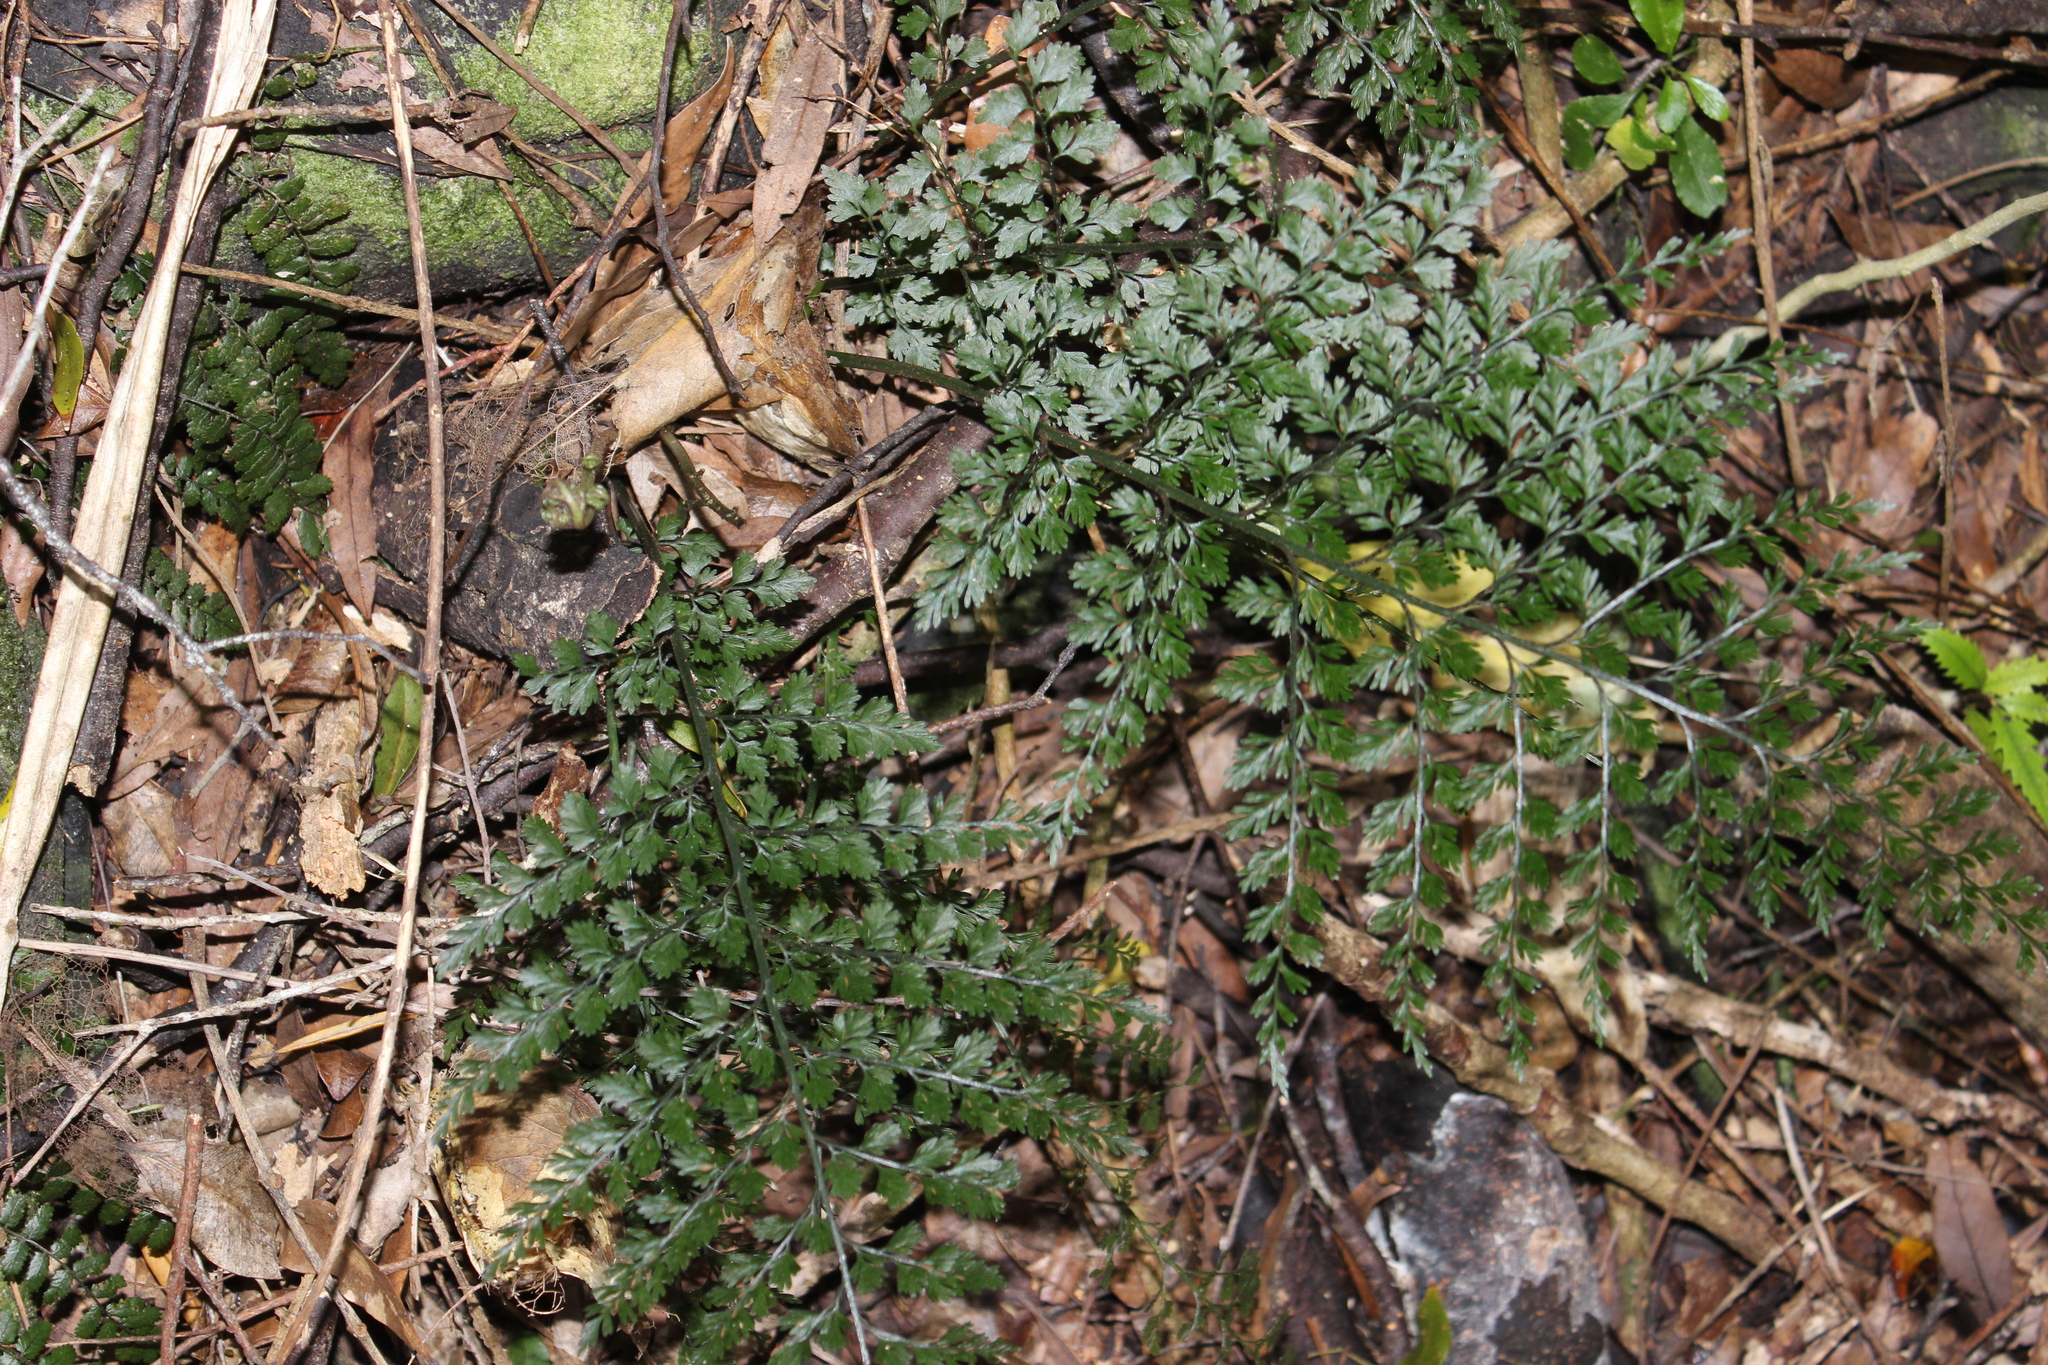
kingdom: Plantae
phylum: Tracheophyta
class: Polypodiopsida
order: Polypodiales
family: Aspleniaceae
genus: Asplenium
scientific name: Asplenium hookerianum
